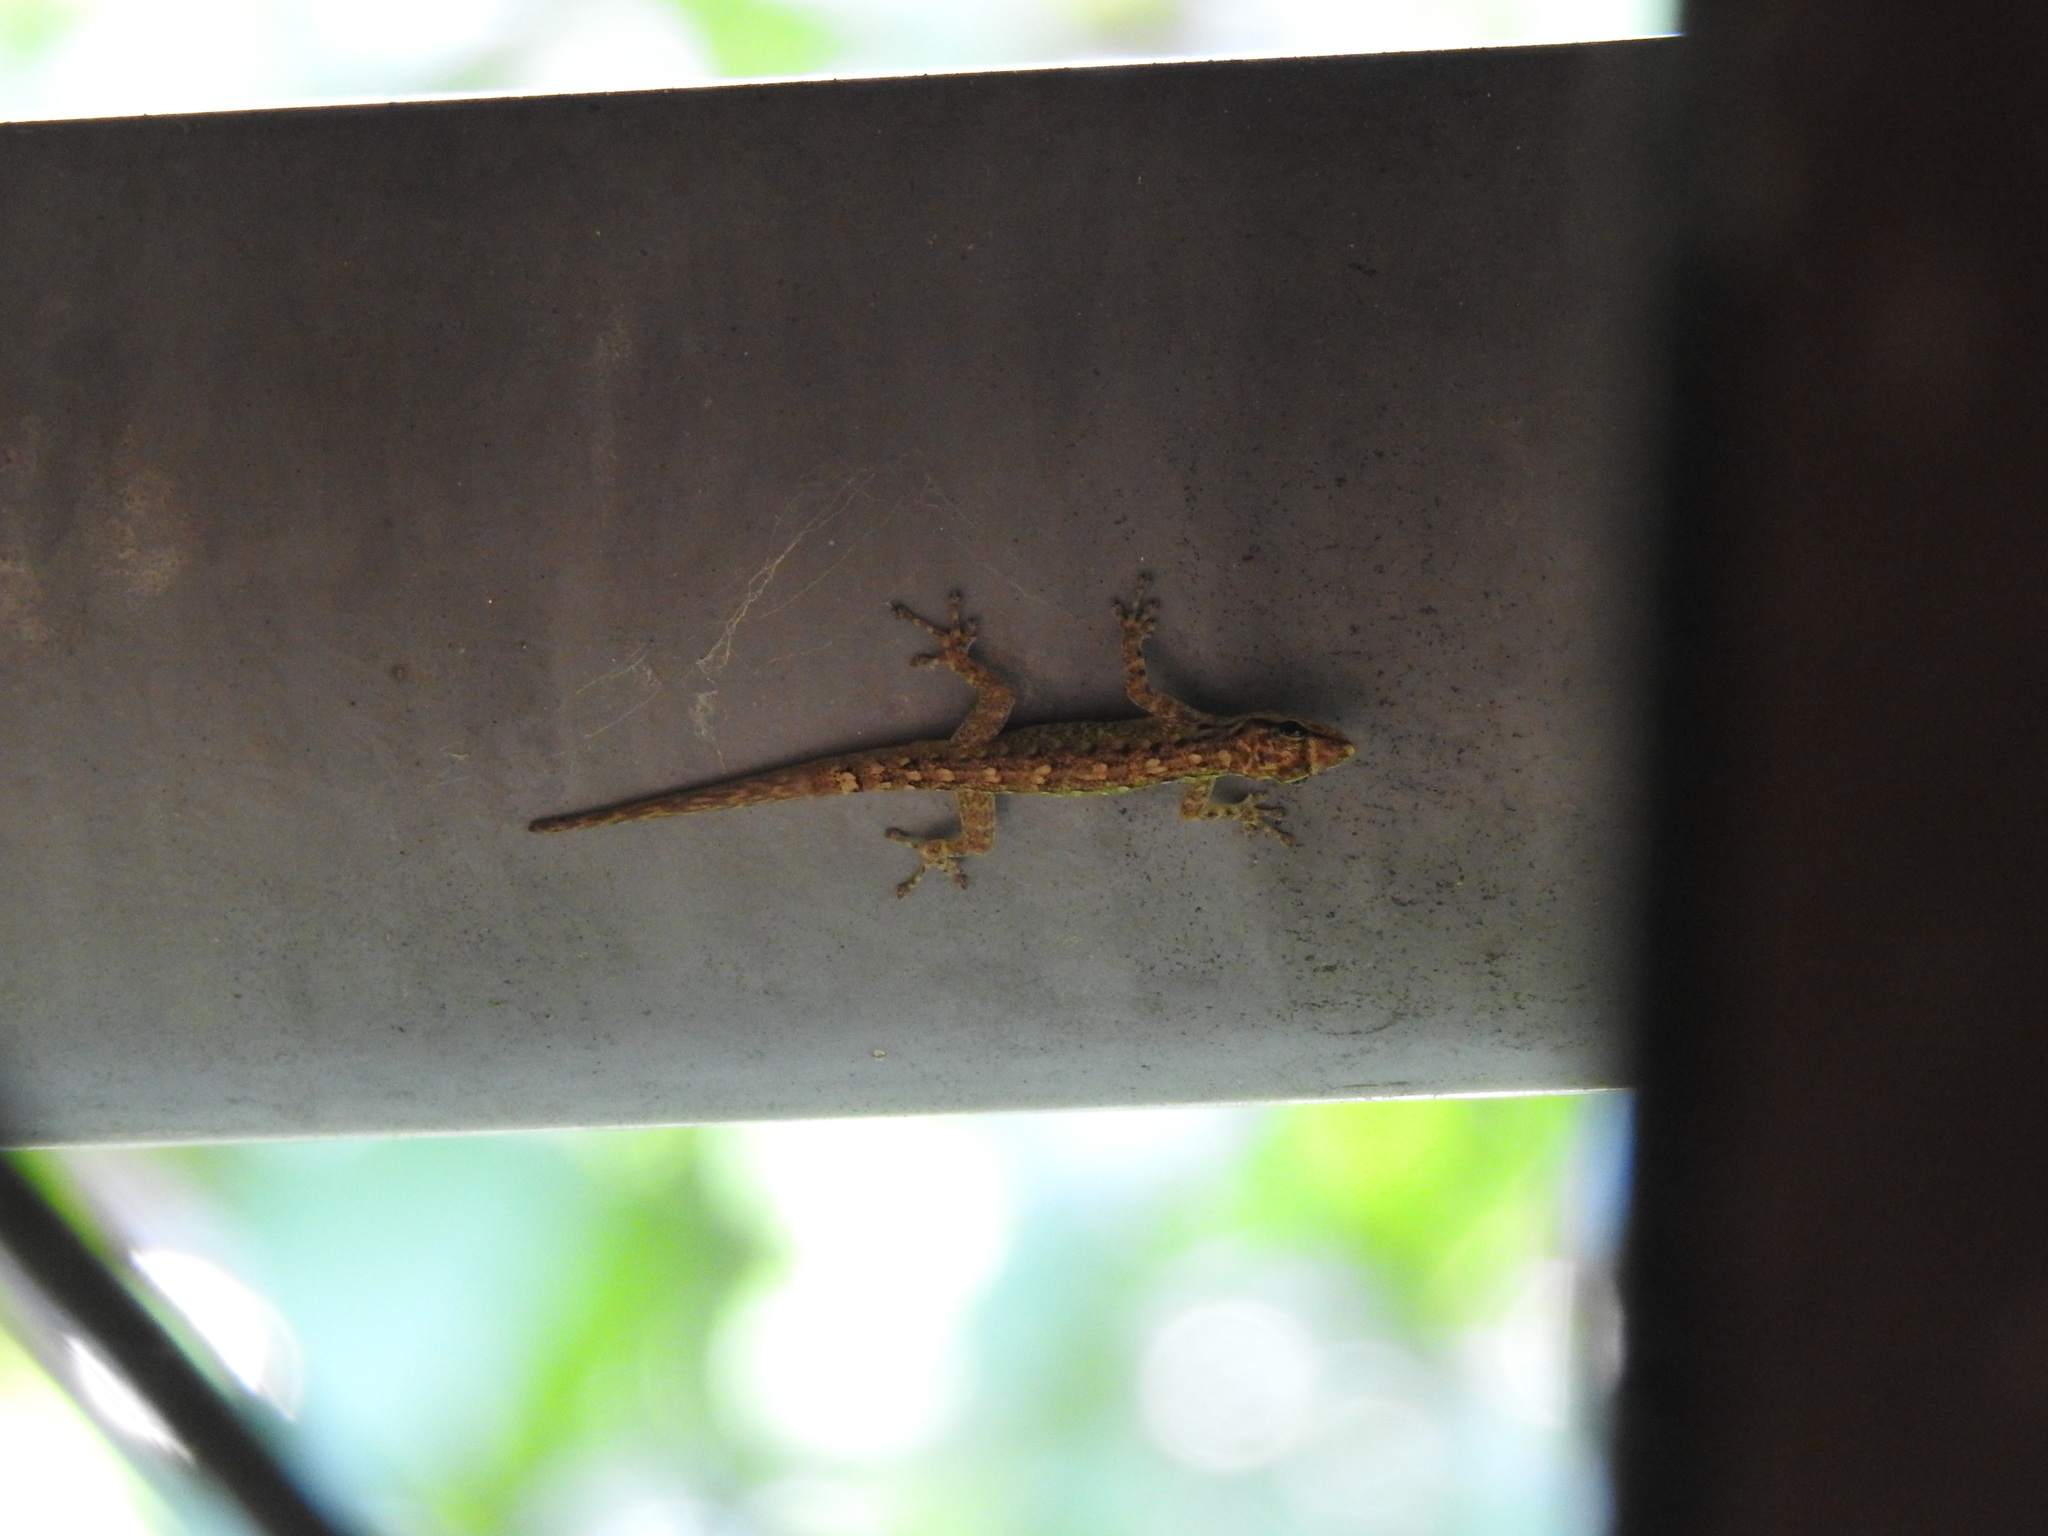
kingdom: Animalia
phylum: Chordata
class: Squamata
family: Gekkonidae
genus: Lygodactylus
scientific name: Lygodactylus thomensis
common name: Annobon dwarf gecko
